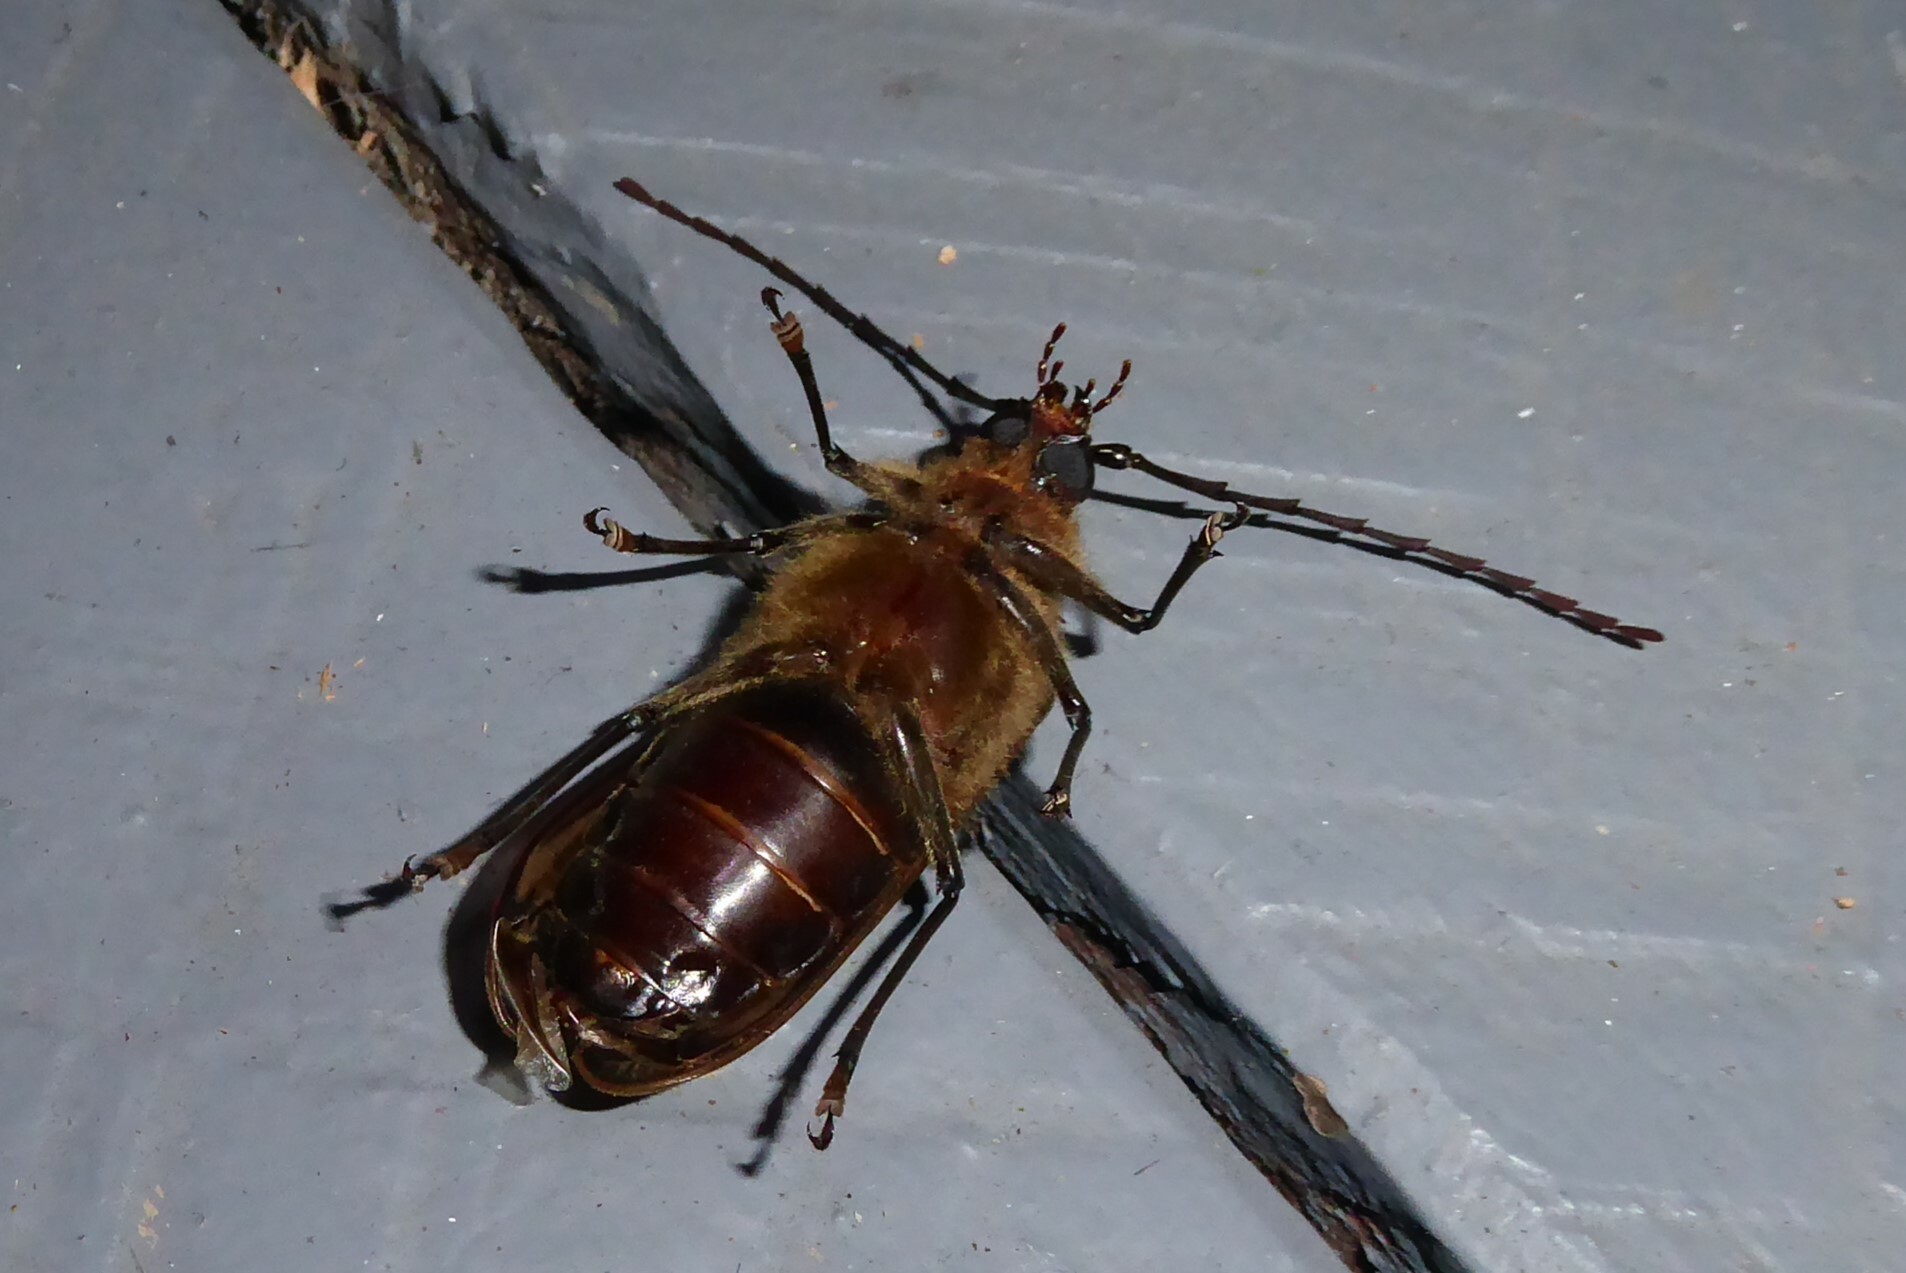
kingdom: Animalia
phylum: Arthropoda
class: Insecta
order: Coleoptera
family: Cerambycidae
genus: Prionoplus
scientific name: Prionoplus reticularis
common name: Huhu beetle
